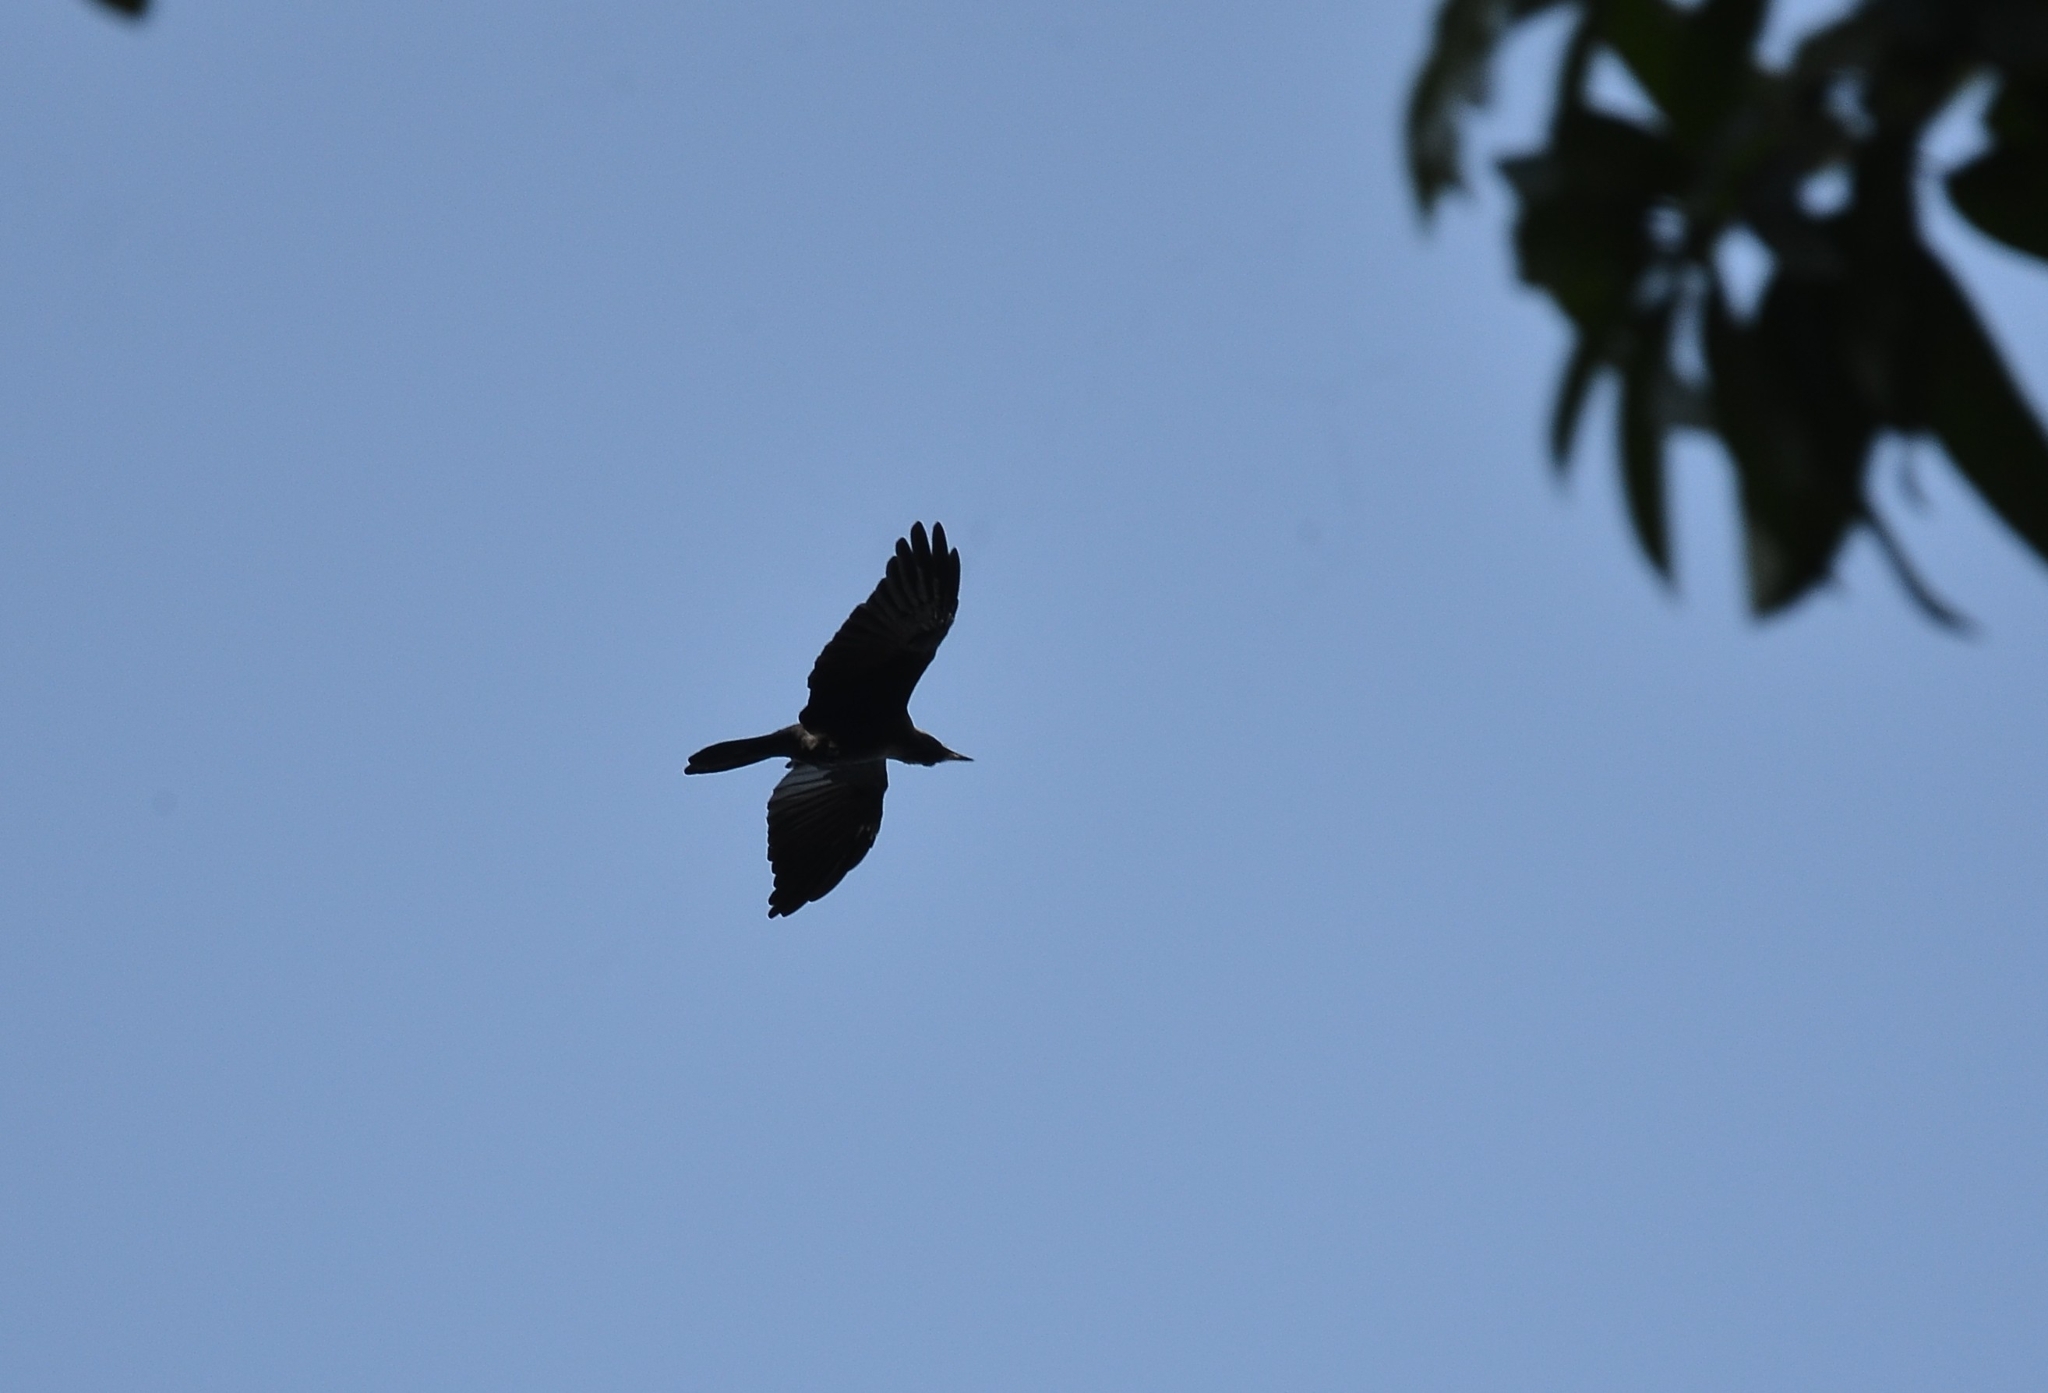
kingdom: Animalia
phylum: Chordata
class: Aves
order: Passeriformes
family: Corvidae
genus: Corvus
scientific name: Corvus splendens
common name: House crow
